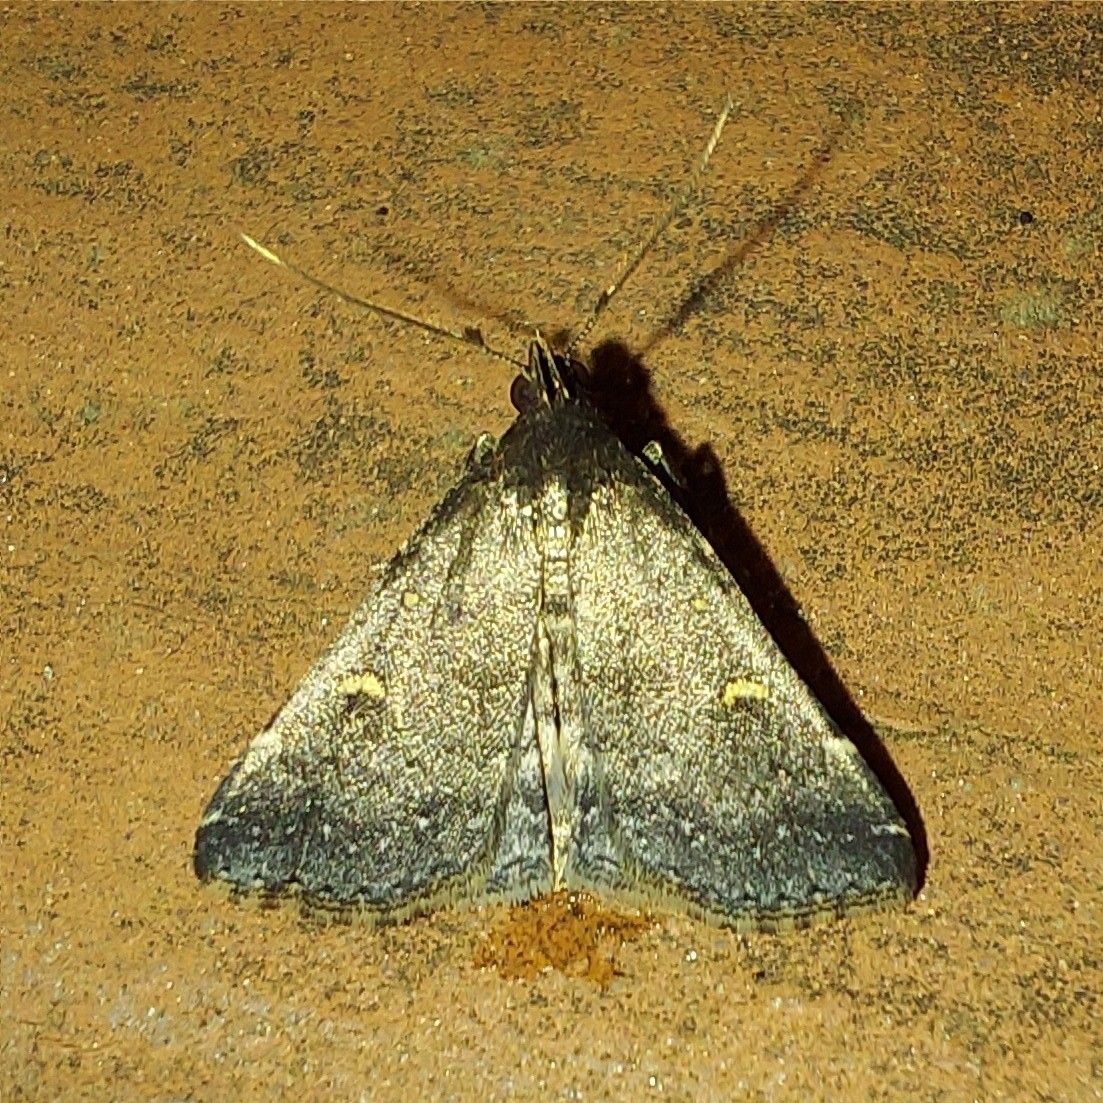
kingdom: Animalia
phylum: Arthropoda
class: Insecta
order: Lepidoptera
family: Erebidae
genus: Tetanolita
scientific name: Tetanolita mynesalis
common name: Smoky tetanolita moth
